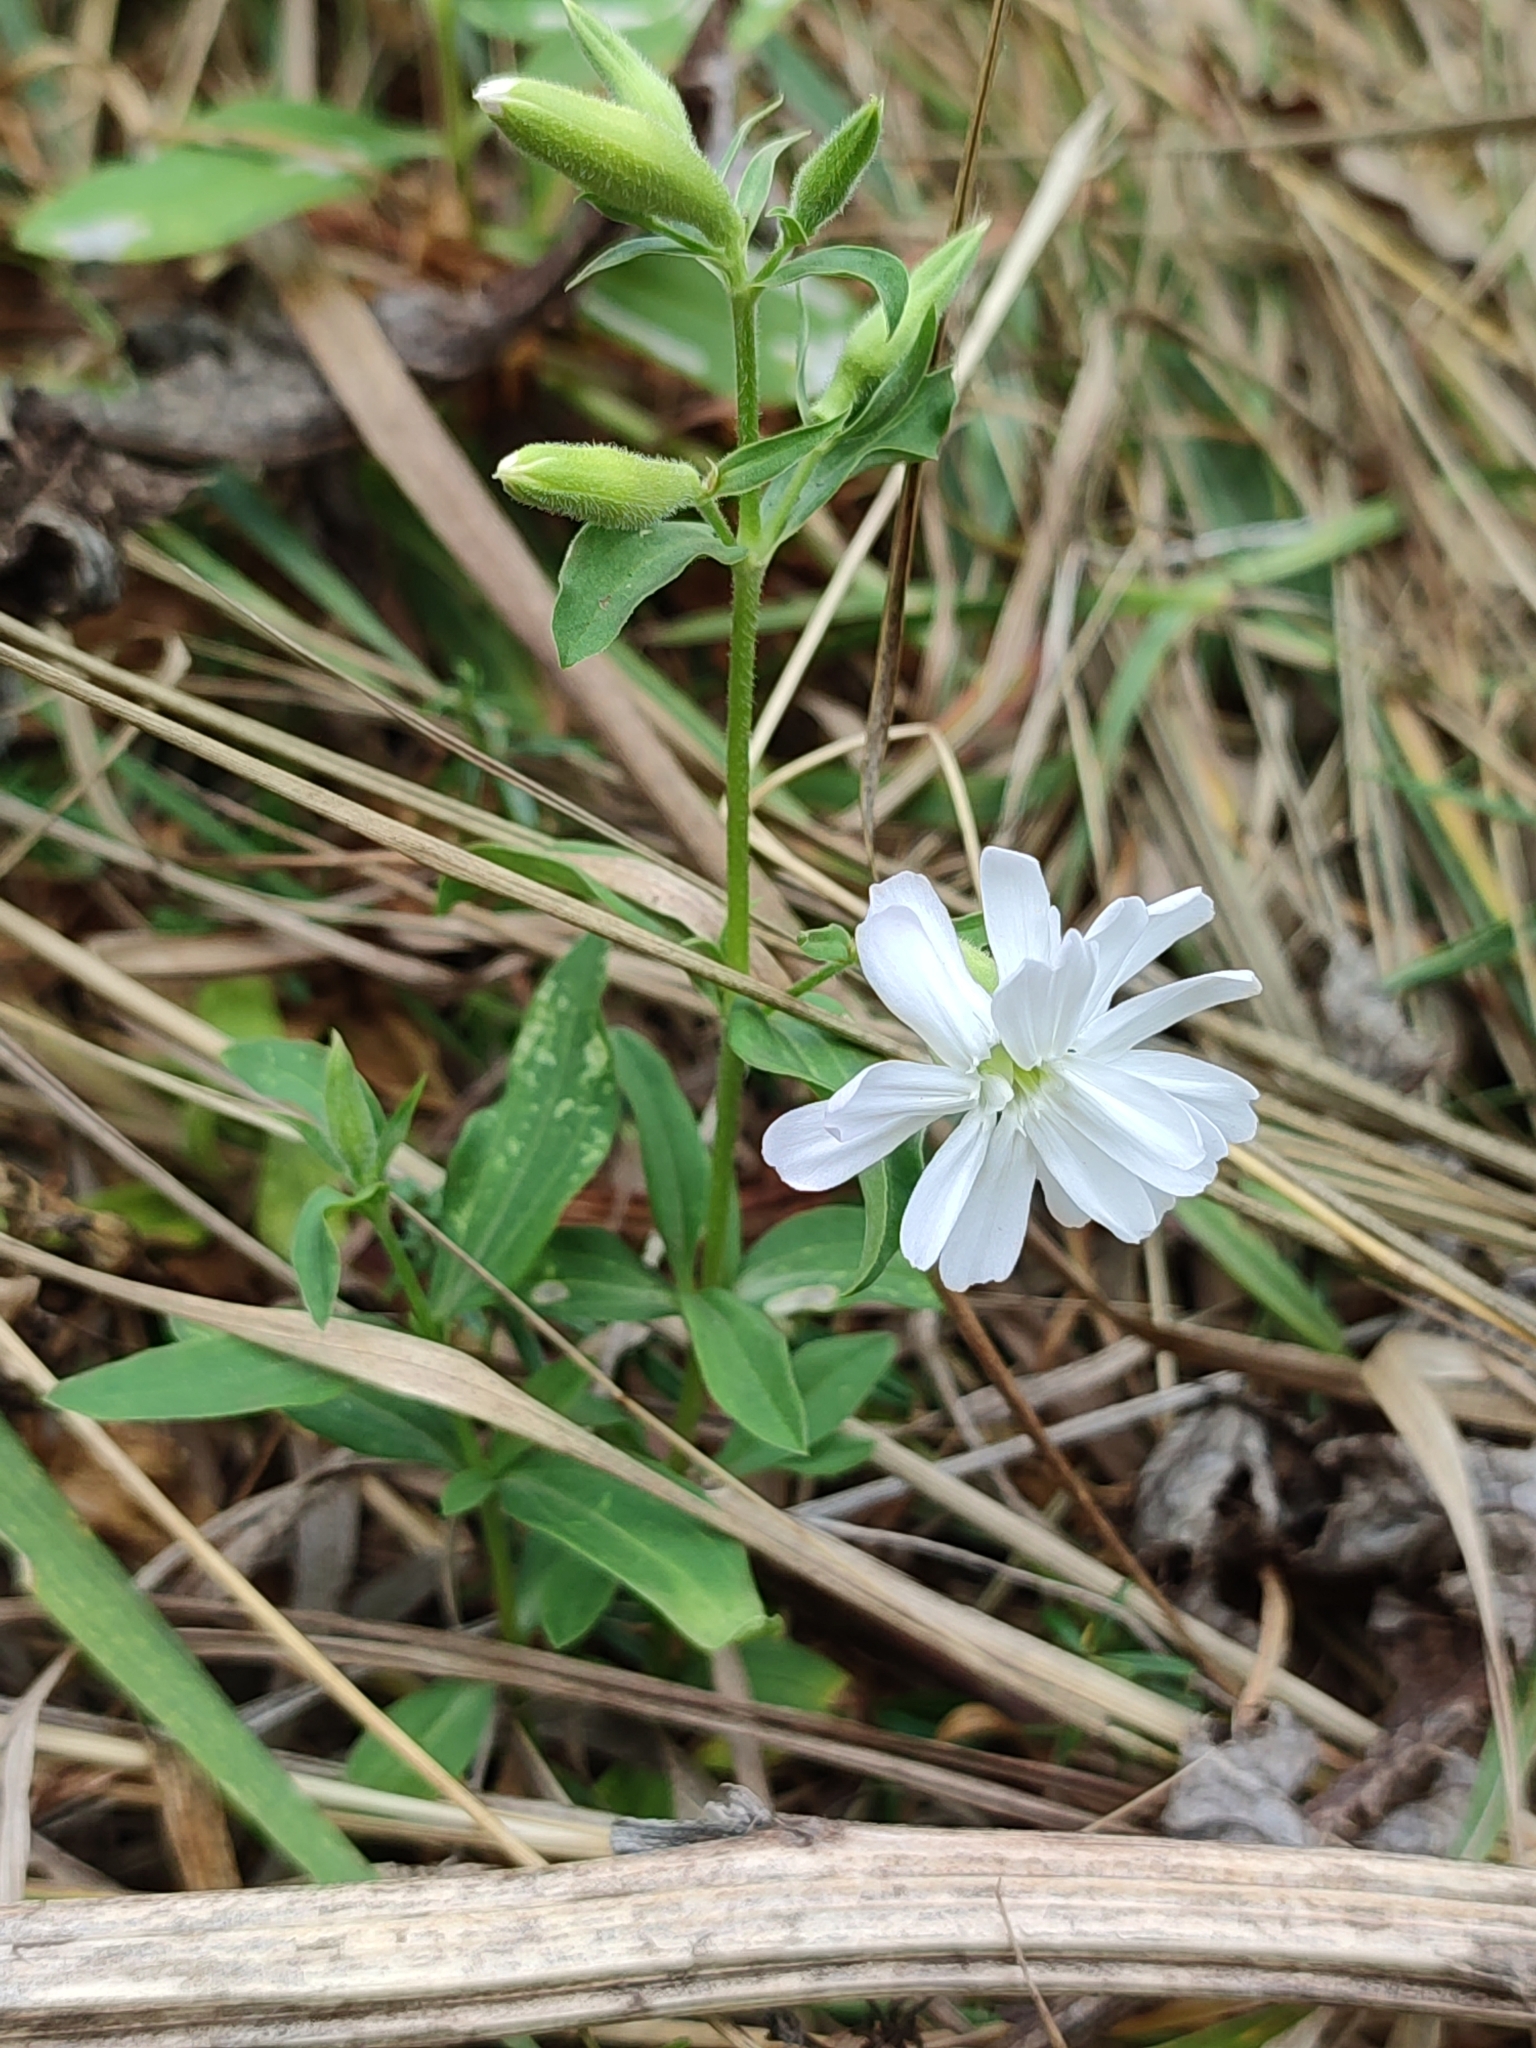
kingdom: Plantae
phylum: Tracheophyta
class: Magnoliopsida
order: Caryophyllales
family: Caryophyllaceae
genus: Saponaria
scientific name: Saponaria officinalis
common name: Soapwort
